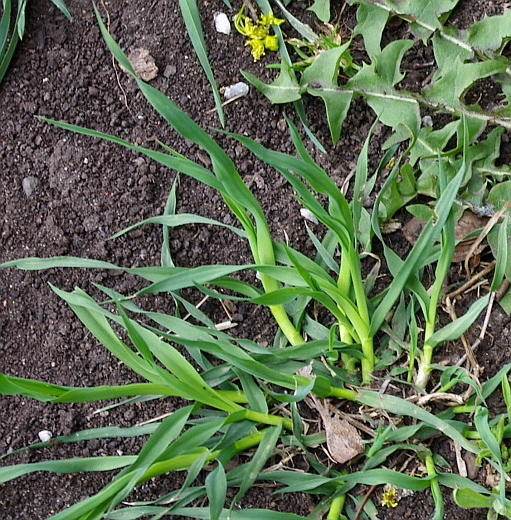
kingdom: Plantae
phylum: Tracheophyta
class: Liliopsida
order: Poales
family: Poaceae
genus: Dactylis
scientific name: Dactylis glomerata
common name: Orchardgrass
